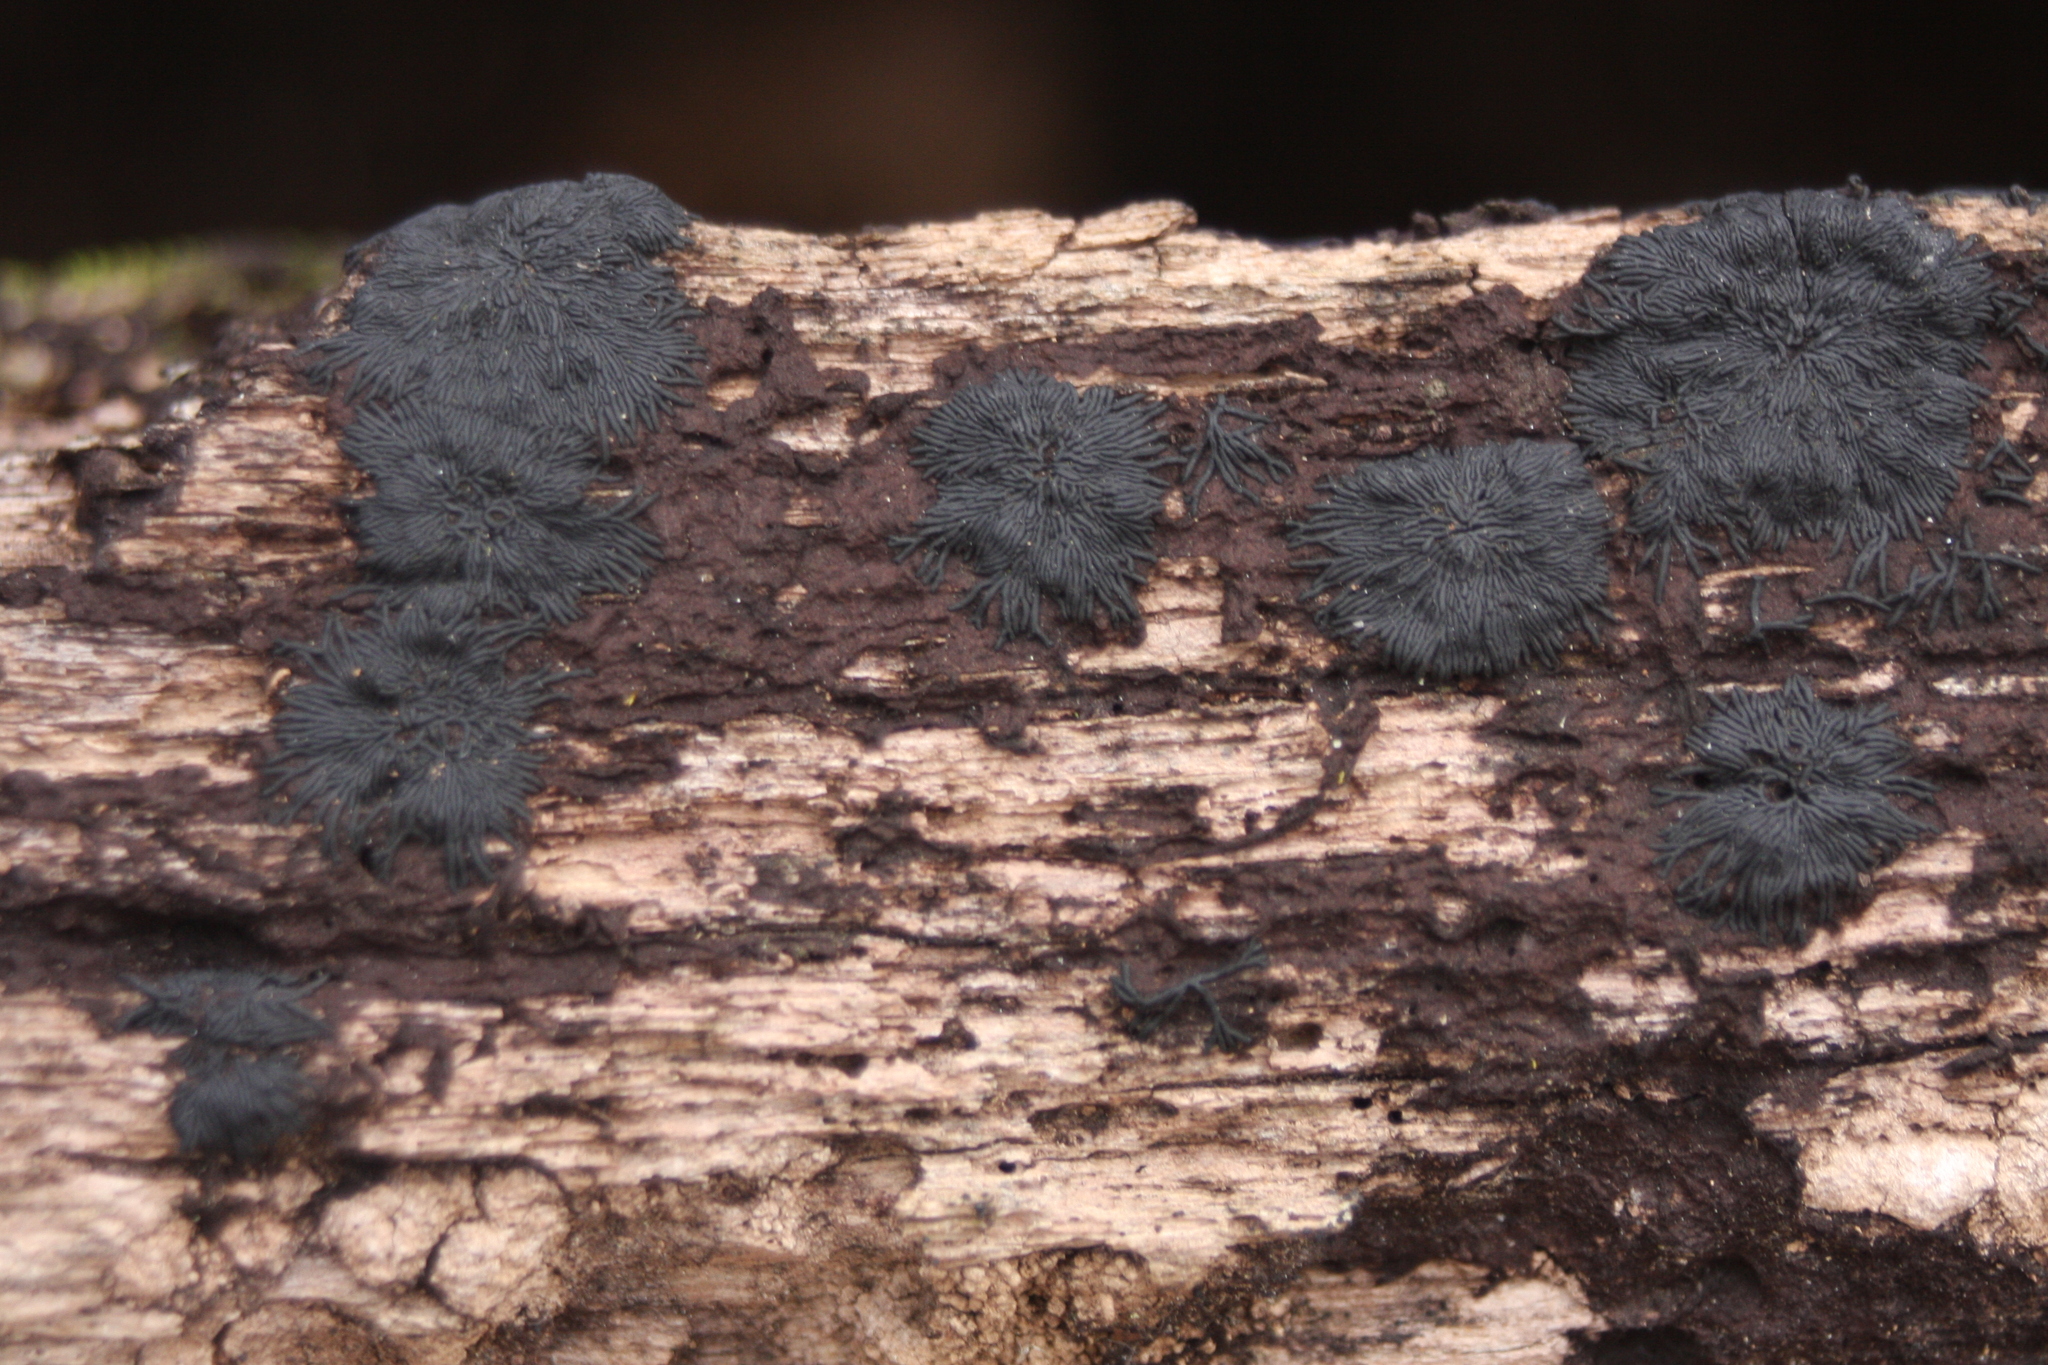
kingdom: Fungi
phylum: Ascomycota
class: Dothideomycetes
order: Mytilinidiales
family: Gloniaceae
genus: Glonium
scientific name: Glonium stellatum
